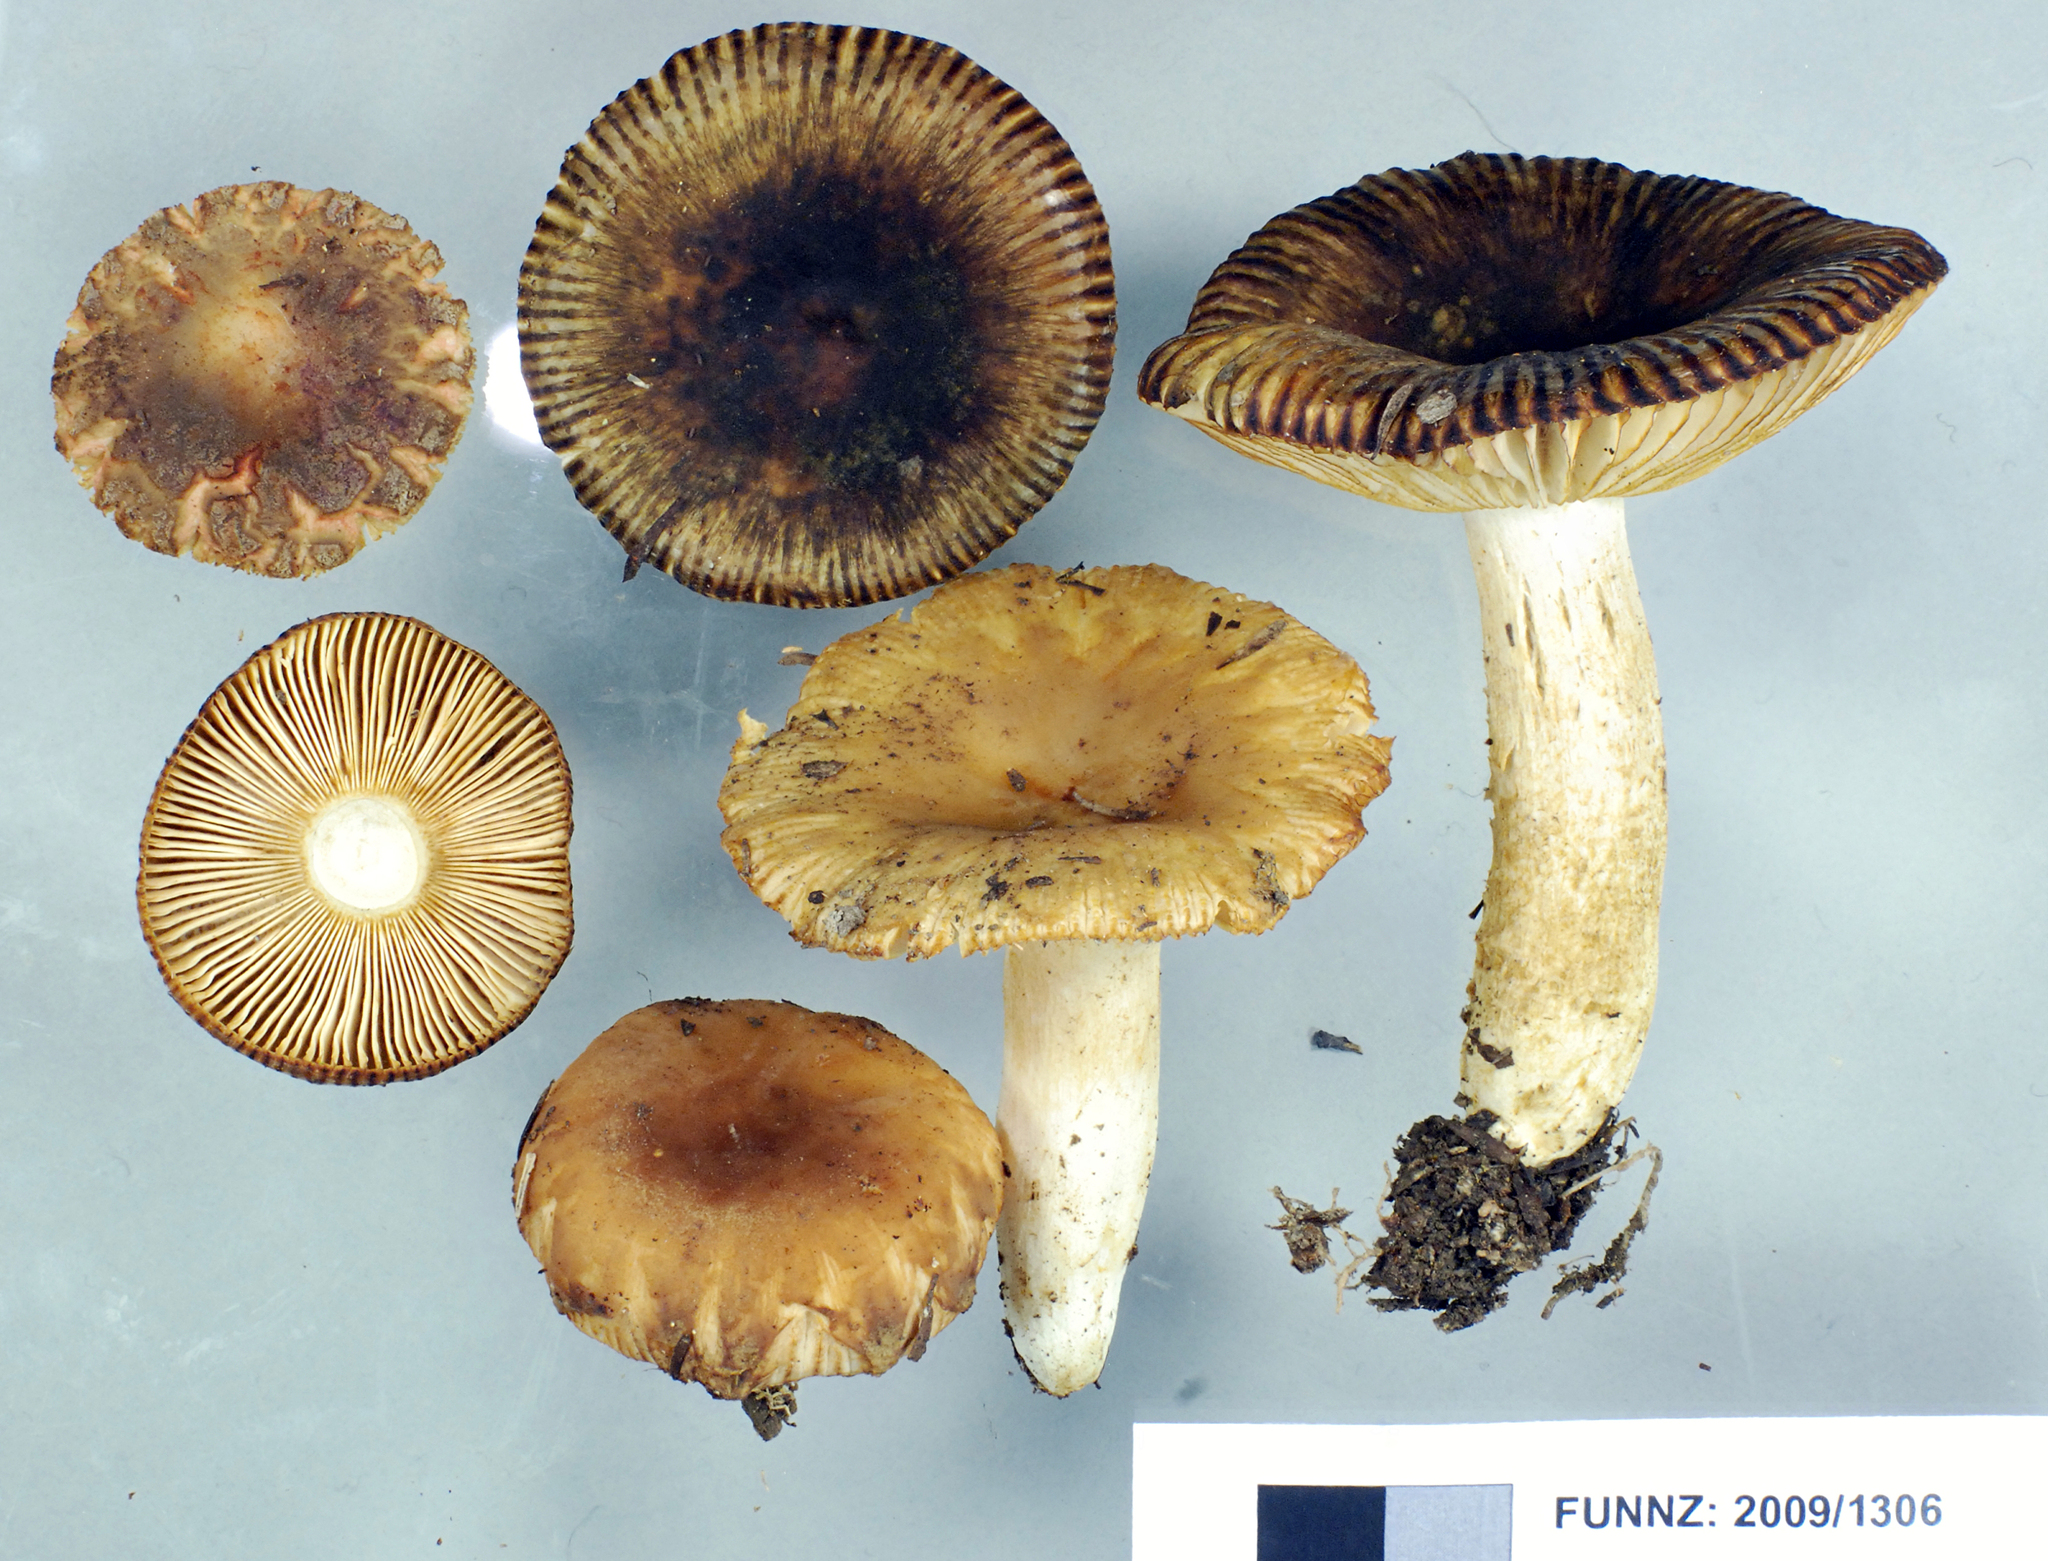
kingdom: Fungi
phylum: Basidiomycota
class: Agaricomycetes
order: Russulales
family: Russulaceae
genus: Russula
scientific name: Russula acrolamellata
